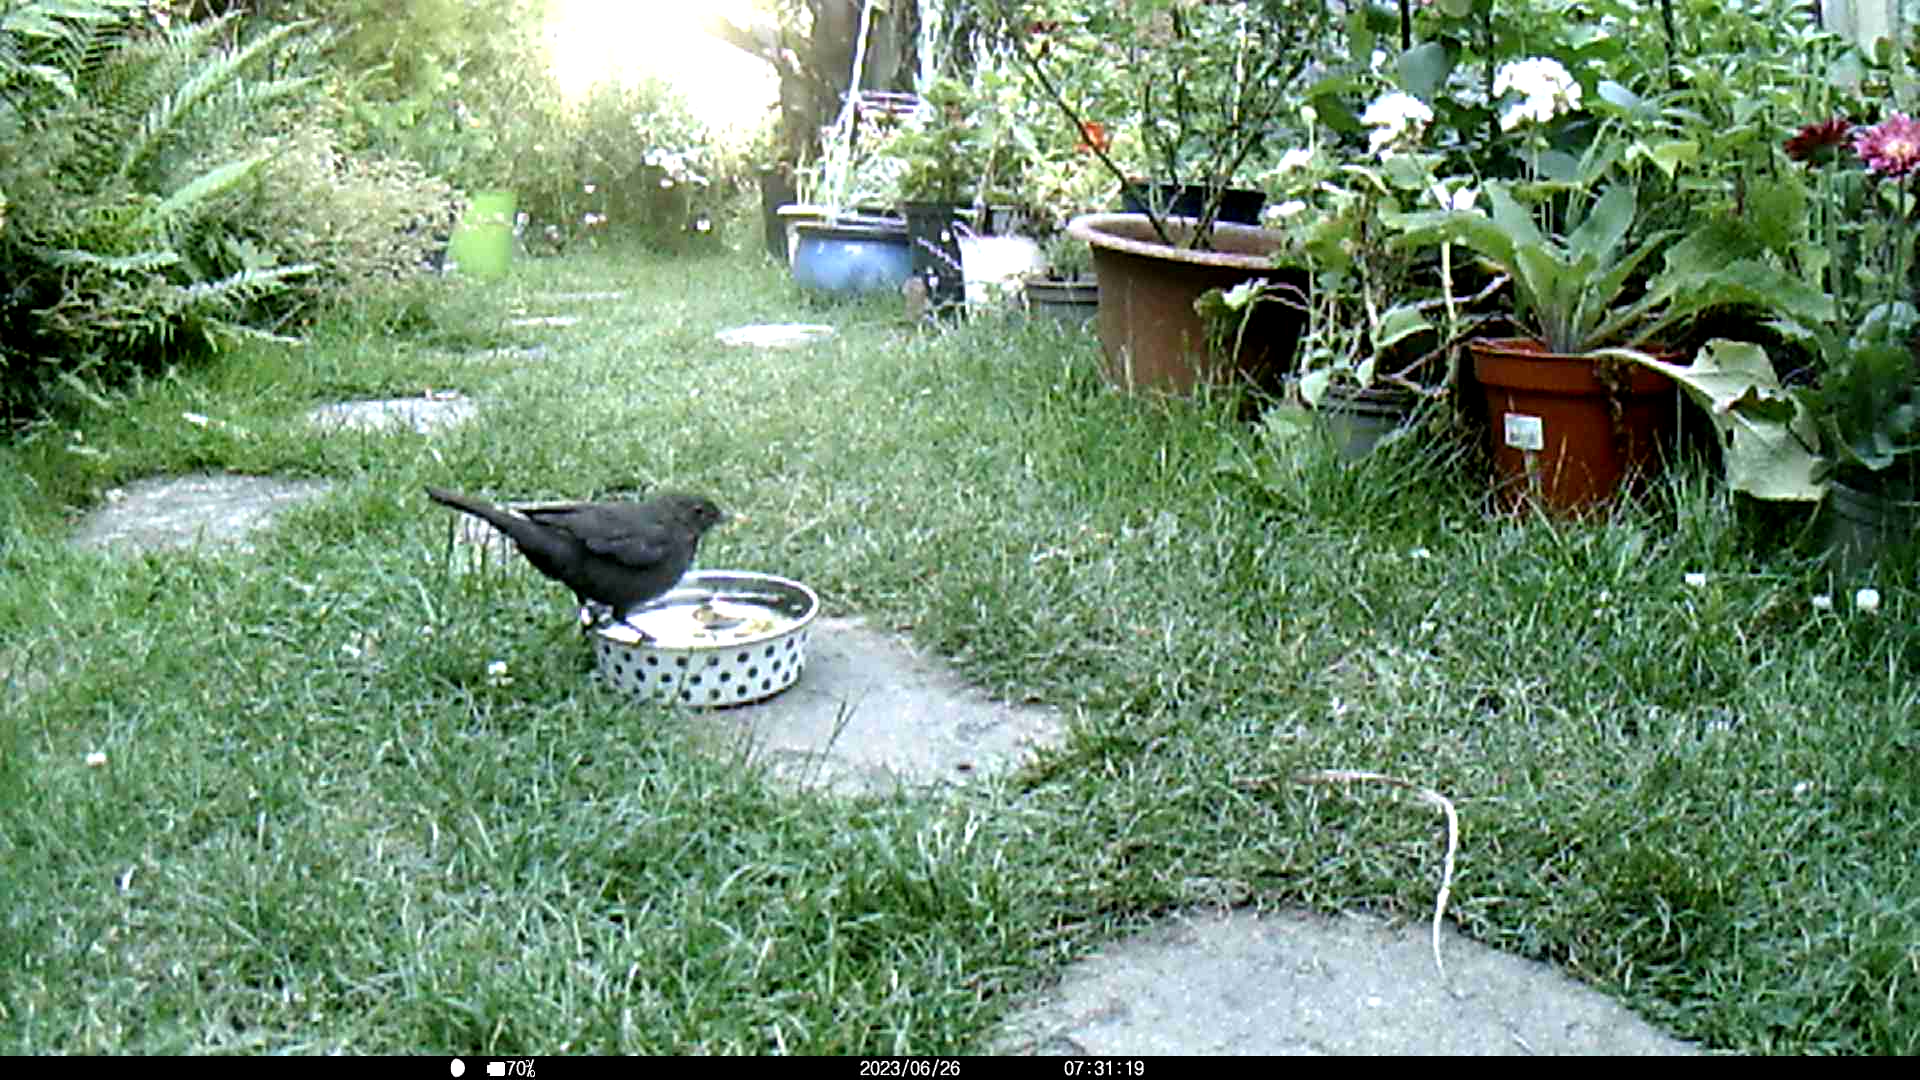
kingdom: Animalia
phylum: Chordata
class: Aves
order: Passeriformes
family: Turdidae
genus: Turdus
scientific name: Turdus merula
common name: Common blackbird
